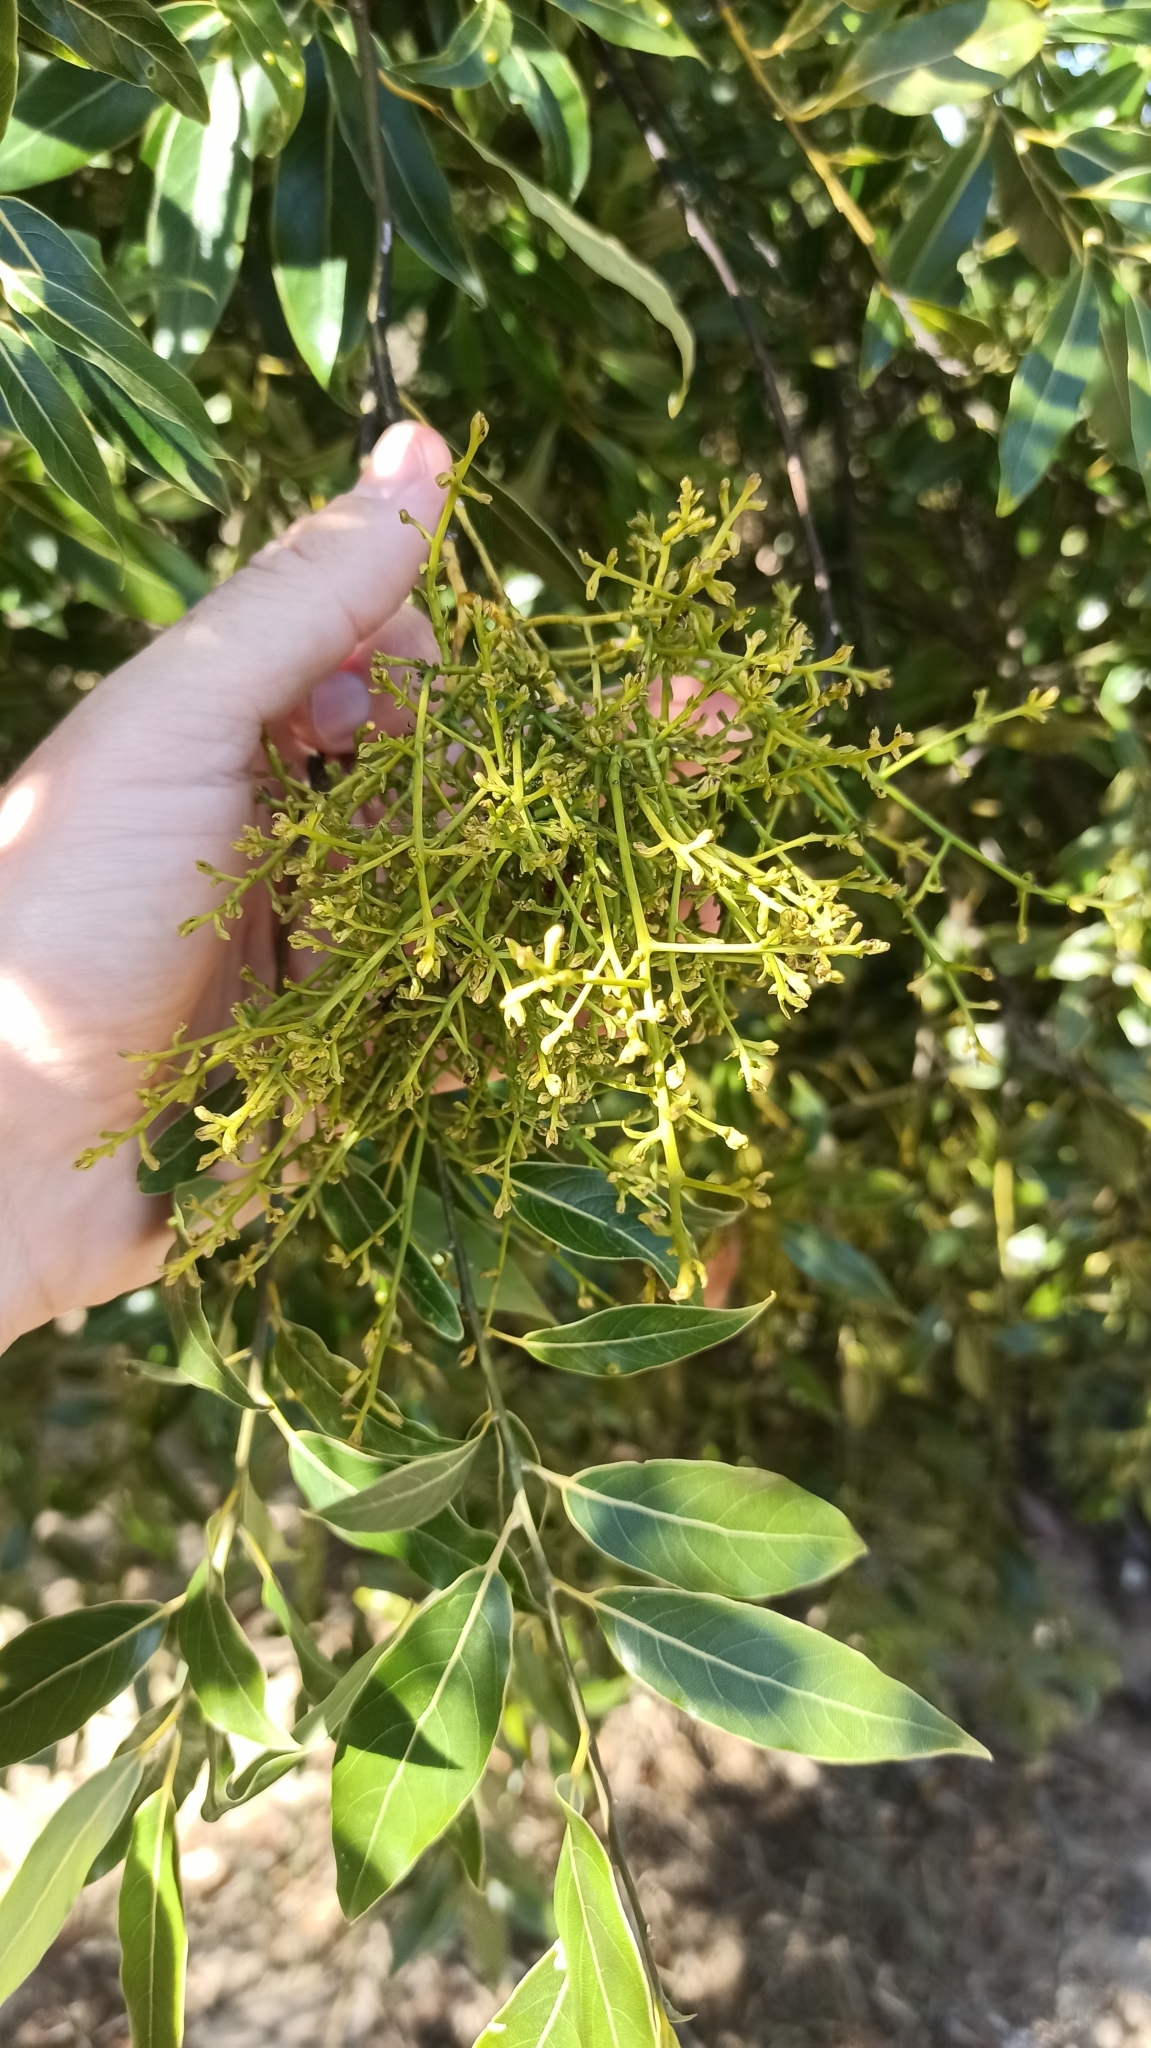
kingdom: Plantae
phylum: Tracheophyta
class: Magnoliopsida
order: Laurales
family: Lauraceae
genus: Ocotea
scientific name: Ocotea acutifolia
